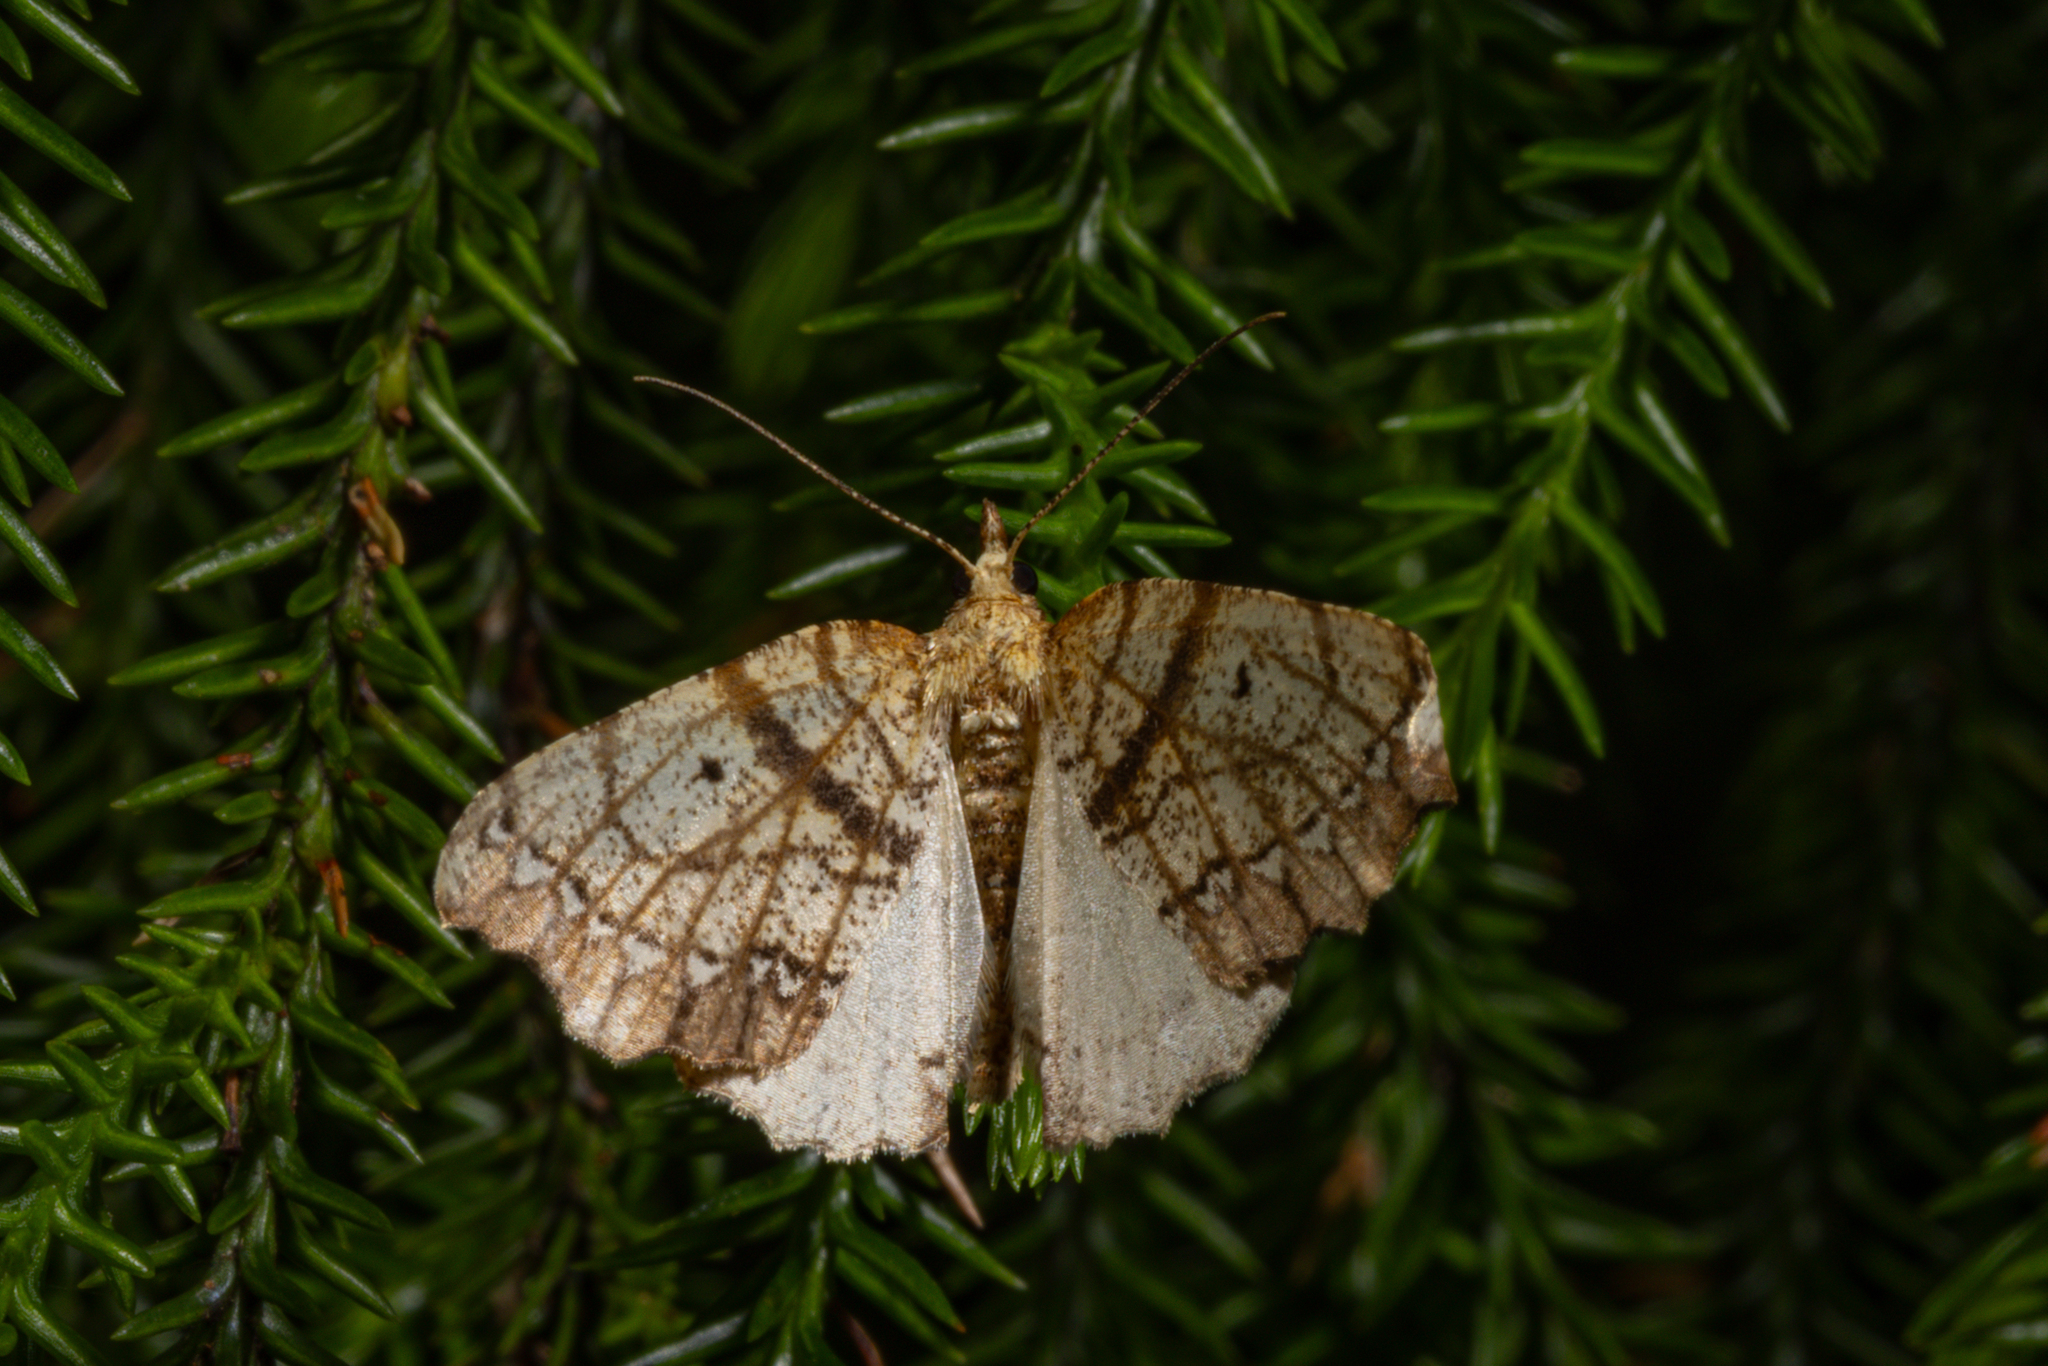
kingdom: Animalia
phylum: Arthropoda
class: Insecta
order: Lepidoptera
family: Geometridae
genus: Chalastra
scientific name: Chalastra pellurgata
